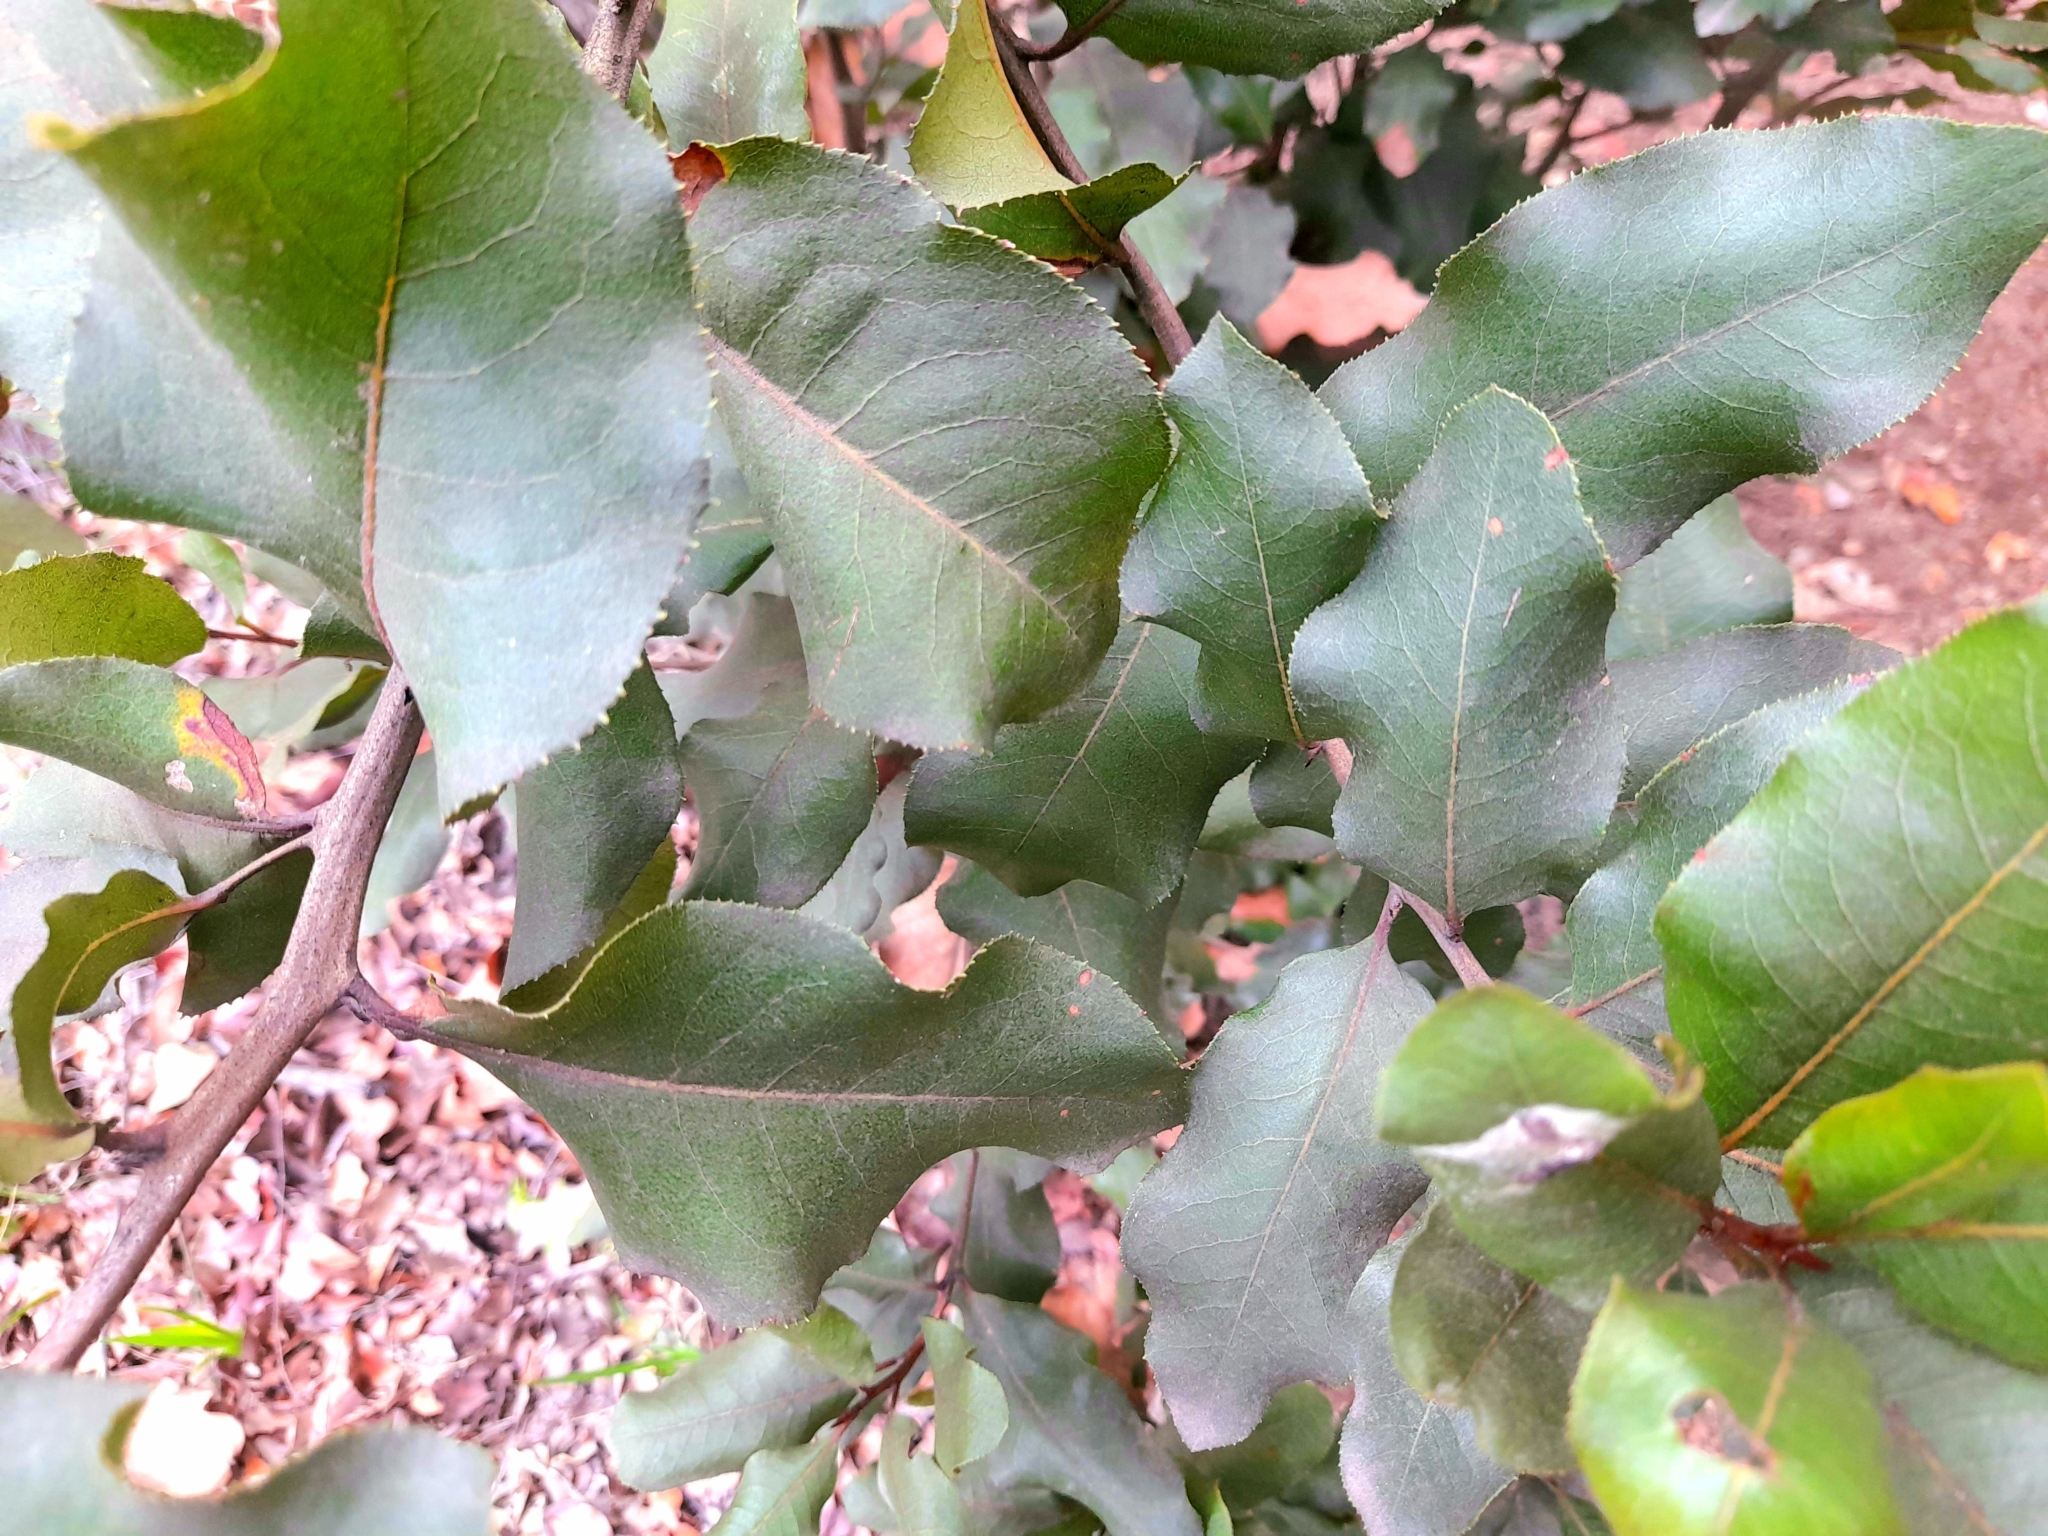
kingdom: Plantae
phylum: Tracheophyta
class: Magnoliopsida
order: Escalloniales
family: Escalloniaceae
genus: Escallonia
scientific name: Escallonia pulverulenta
